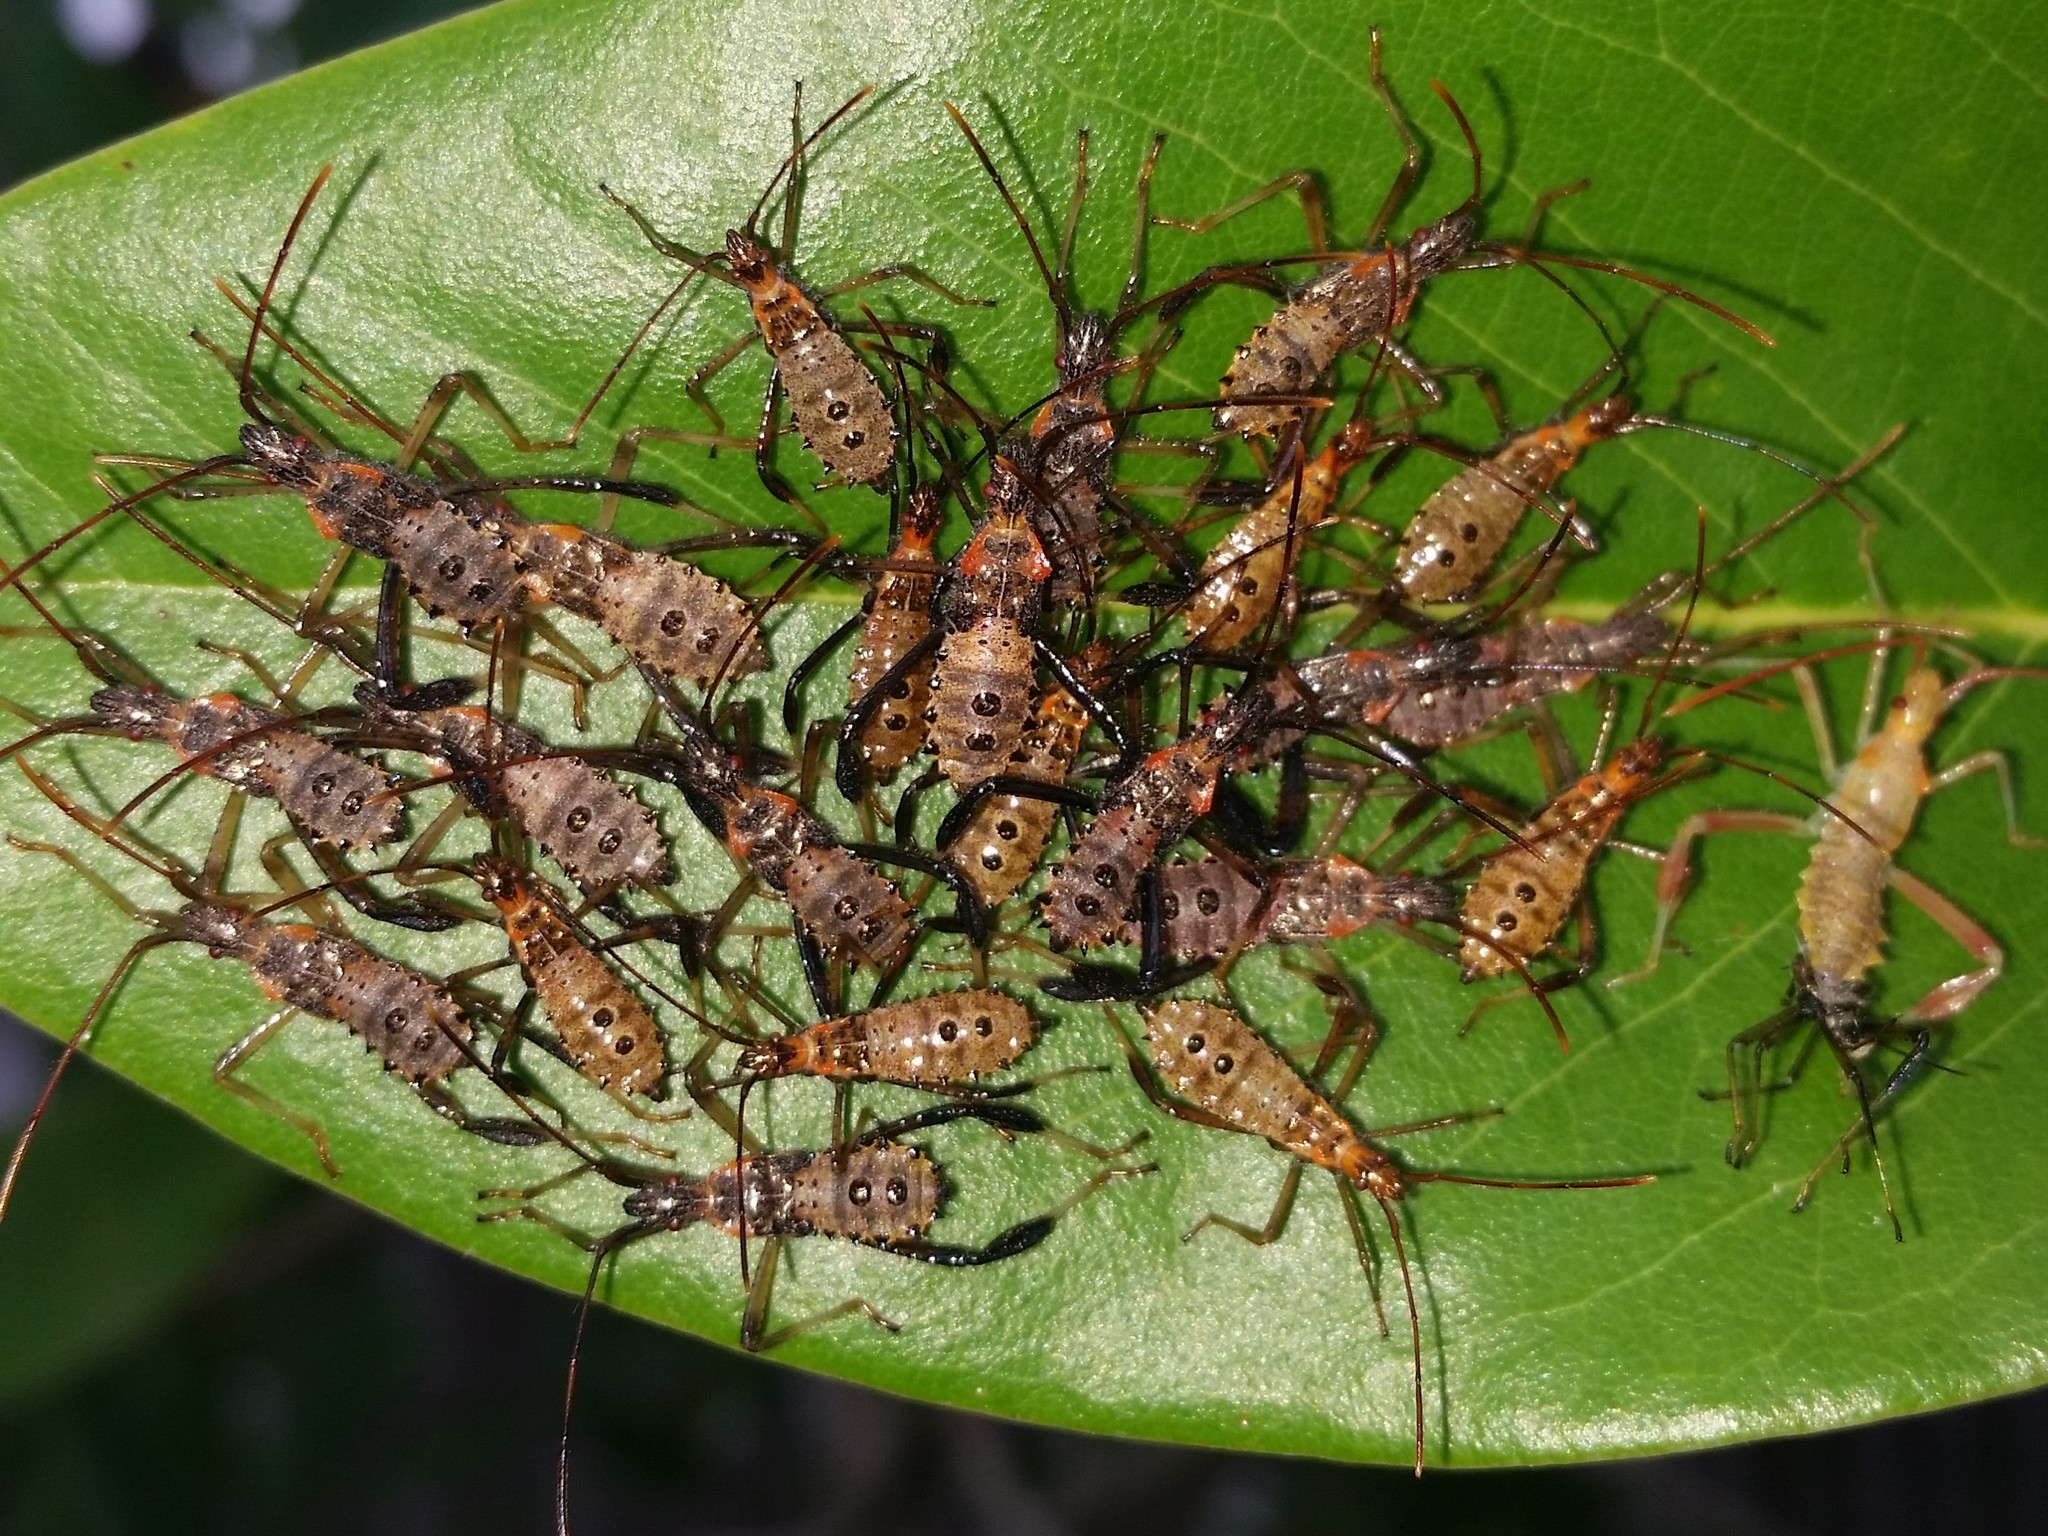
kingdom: Animalia
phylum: Arthropoda
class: Insecta
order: Hemiptera
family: Coreidae
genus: Leptoglossus
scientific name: Leptoglossus fulvicornis
